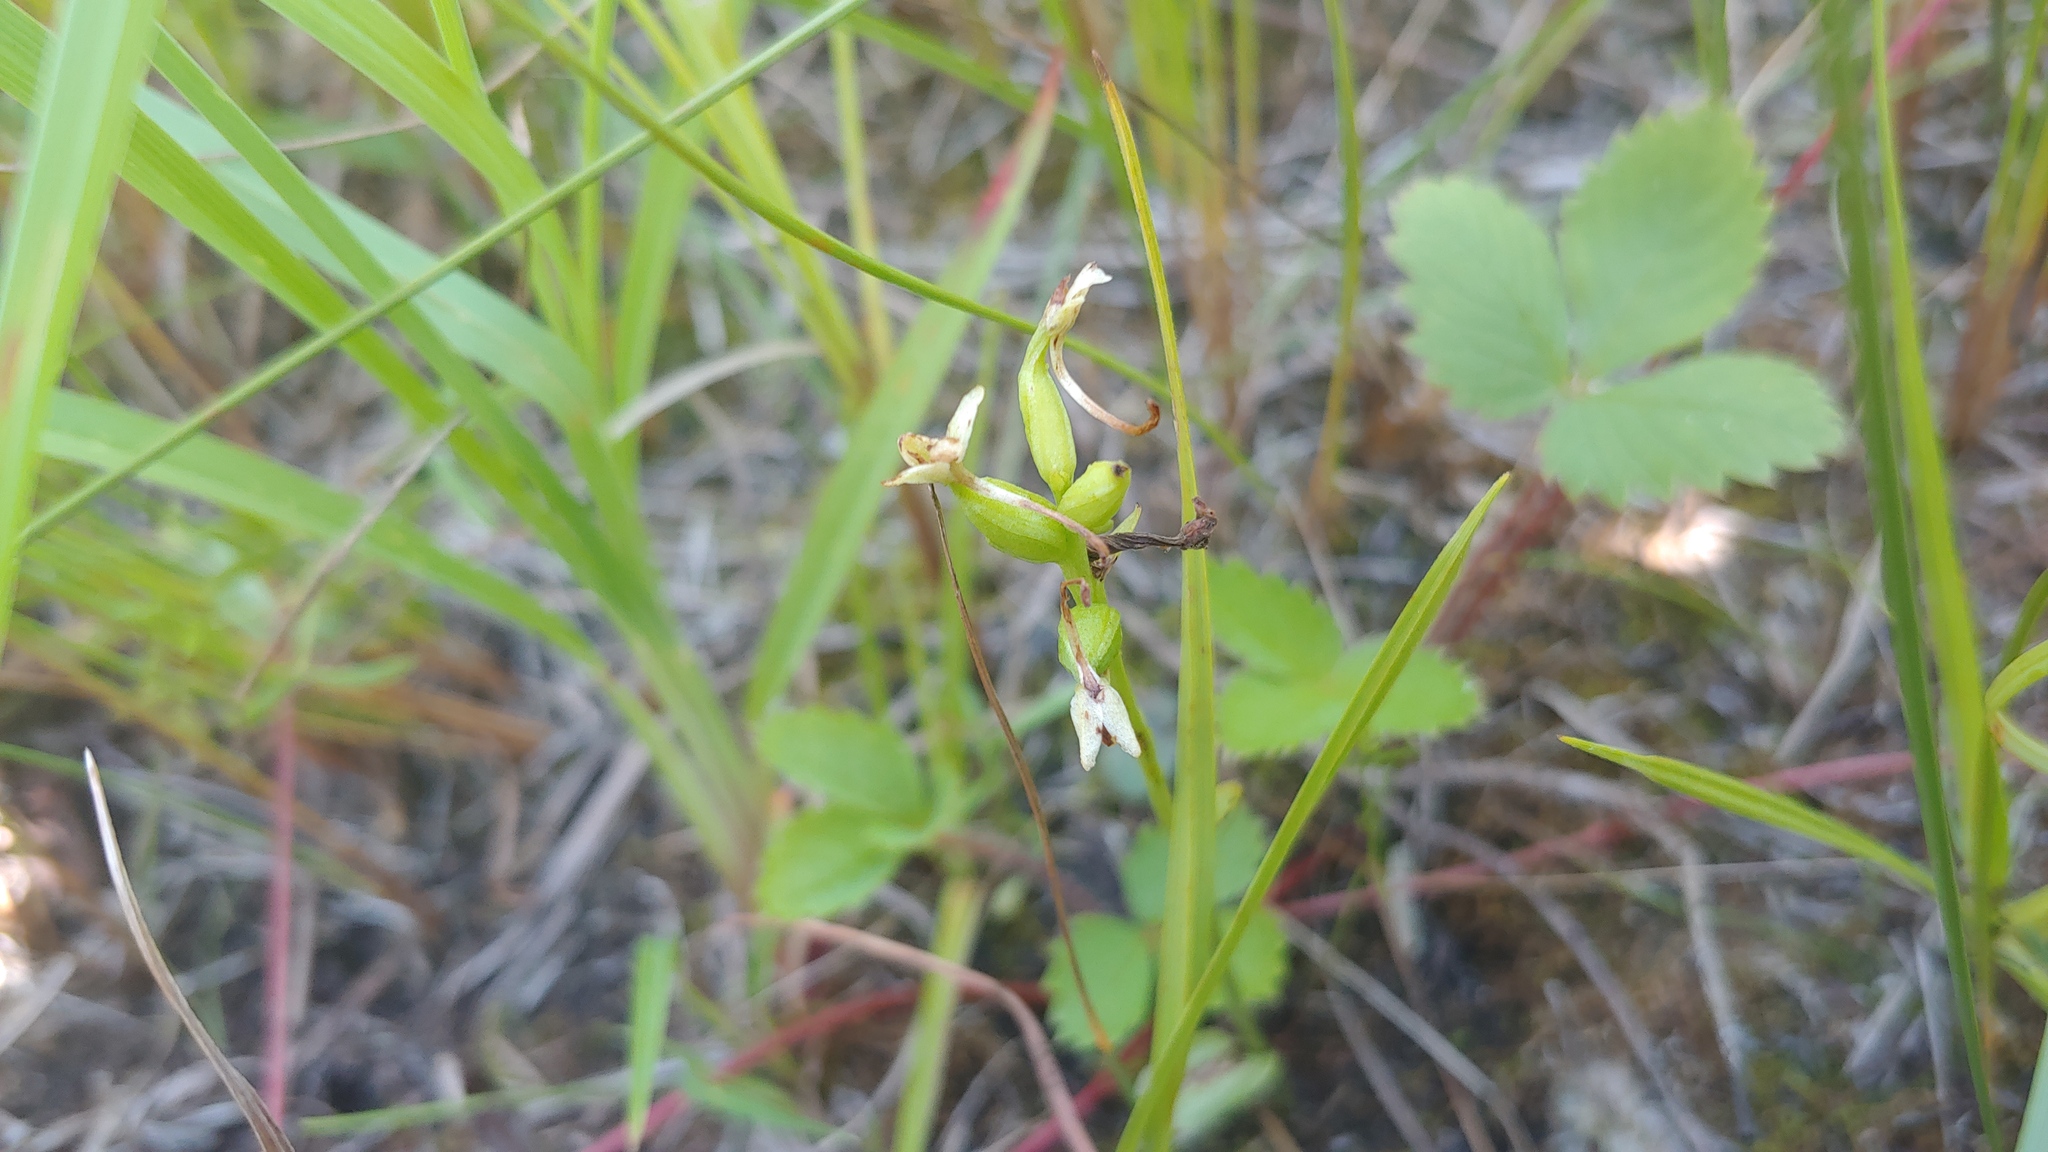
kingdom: Plantae
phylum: Tracheophyta
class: Liliopsida
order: Asparagales
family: Orchidaceae
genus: Platanthera
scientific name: Platanthera clavellata
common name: Club-spur orchid
